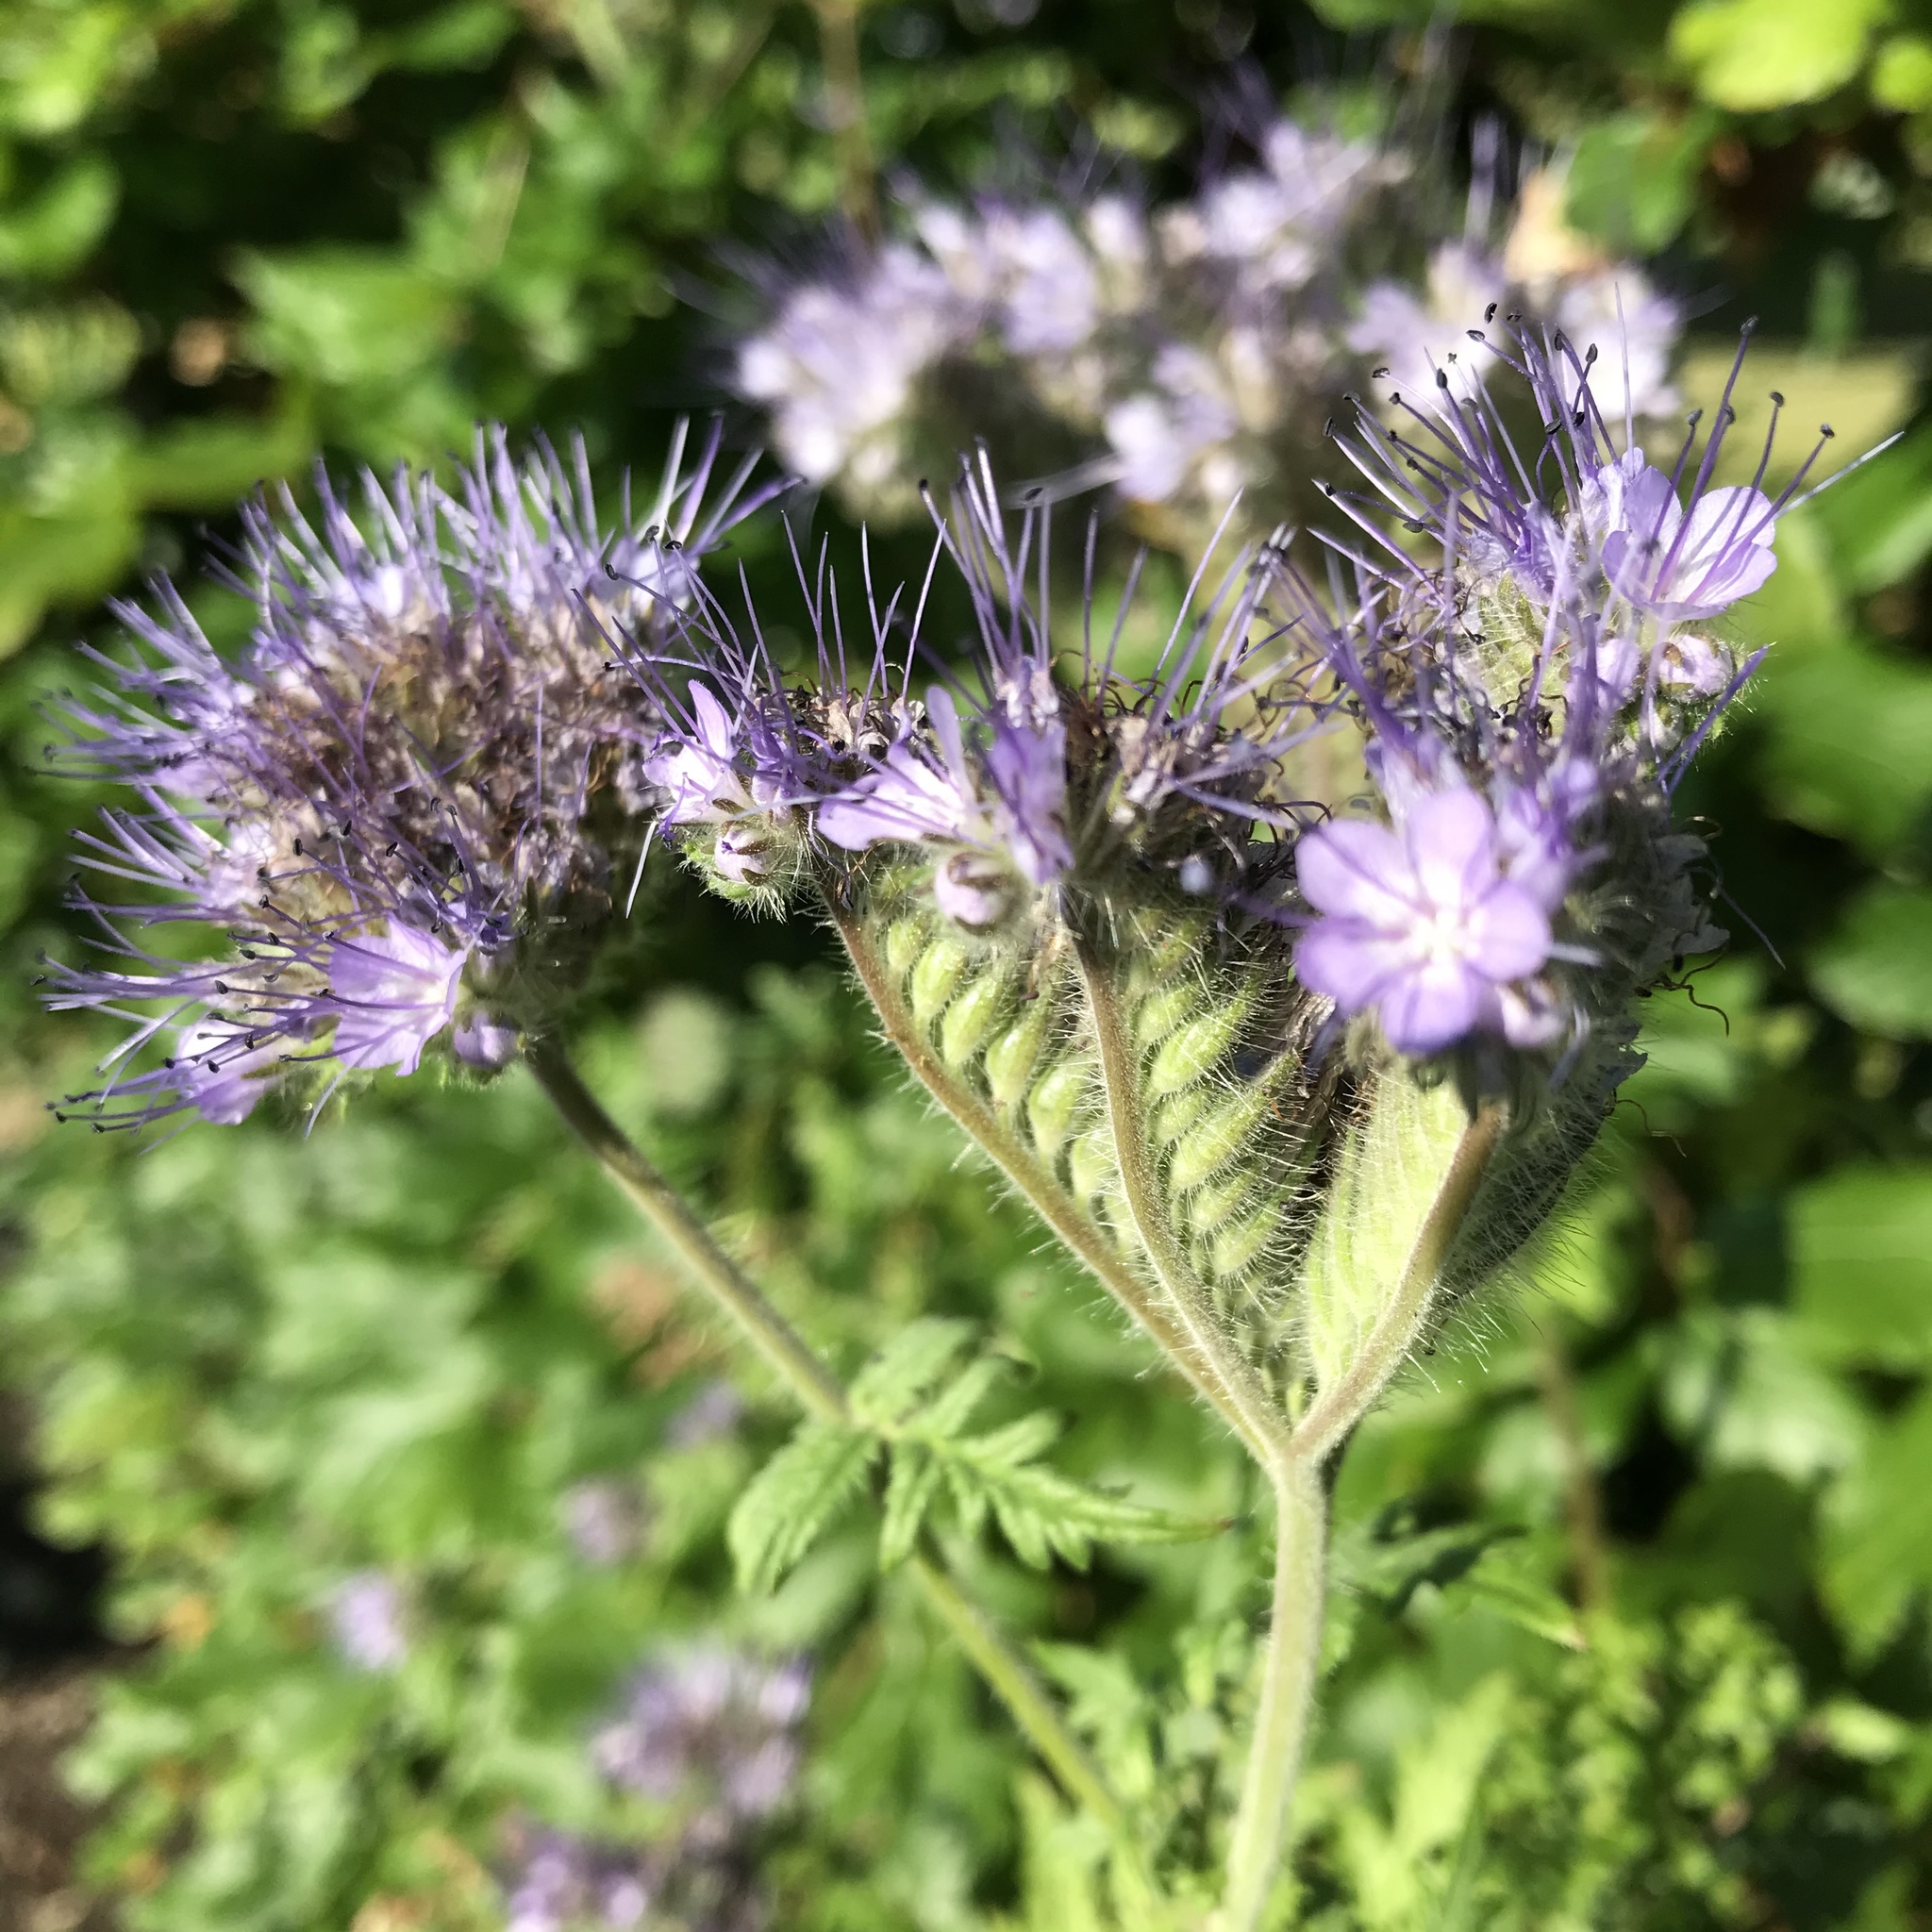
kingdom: Plantae
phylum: Tracheophyta
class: Magnoliopsida
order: Boraginales
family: Hydrophyllaceae
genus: Phacelia
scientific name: Phacelia tanacetifolia
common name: Phacelia
